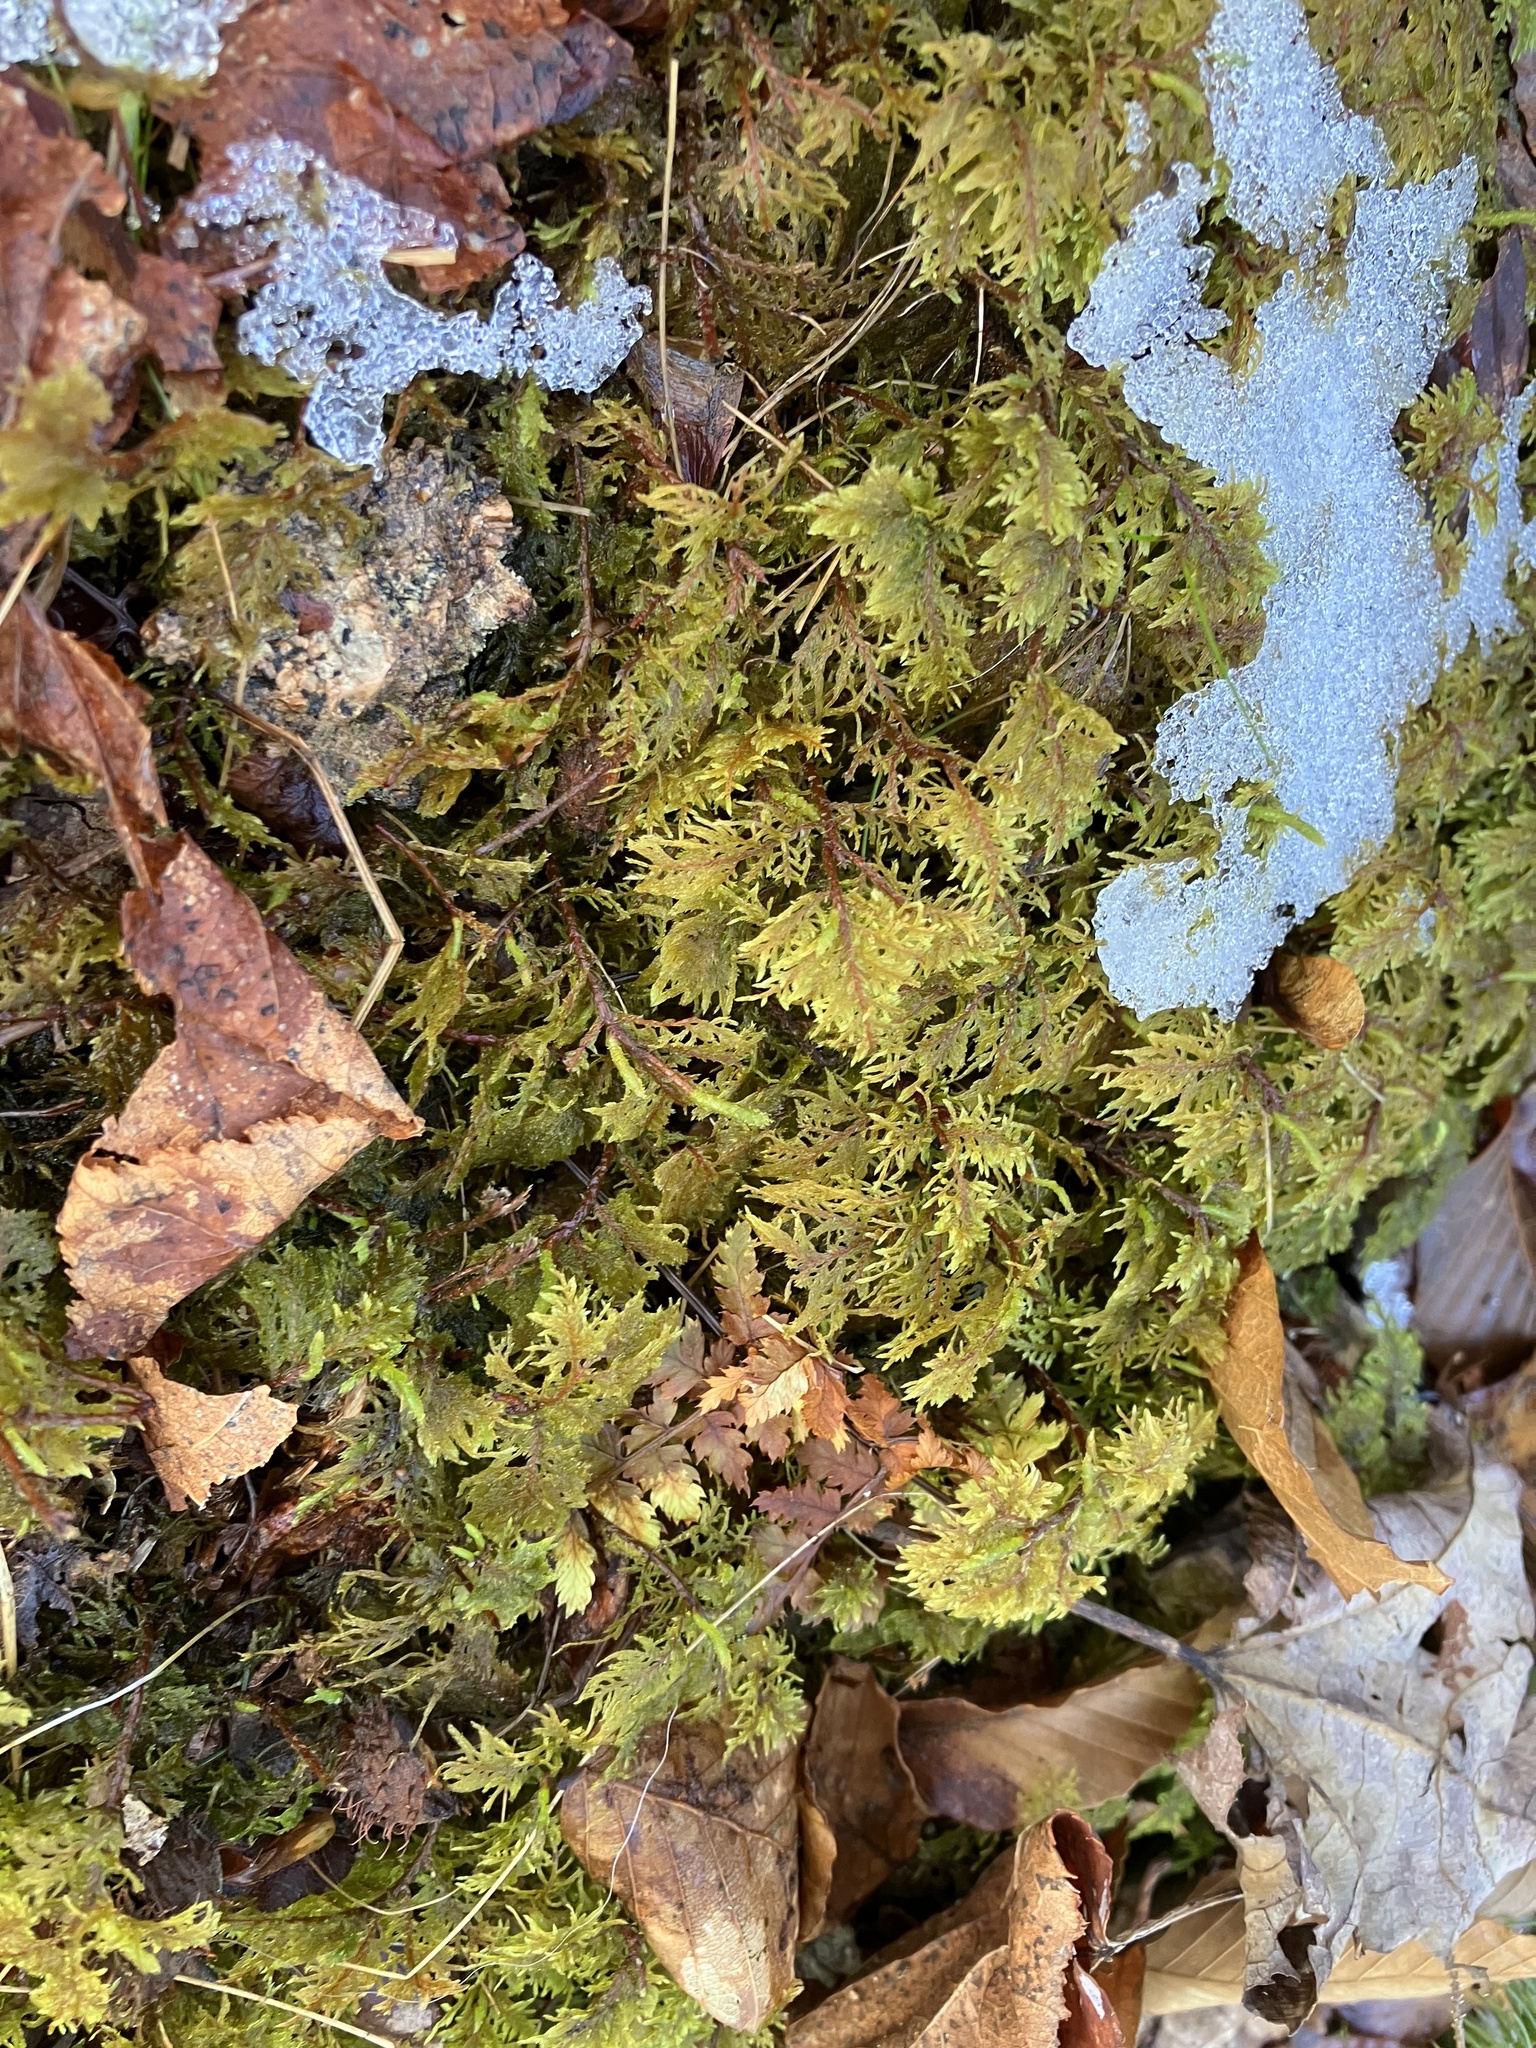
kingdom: Plantae
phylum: Bryophyta
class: Bryopsida
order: Hypnales
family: Hylocomiaceae
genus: Hylocomium
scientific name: Hylocomium splendens
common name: Stairstep moss
